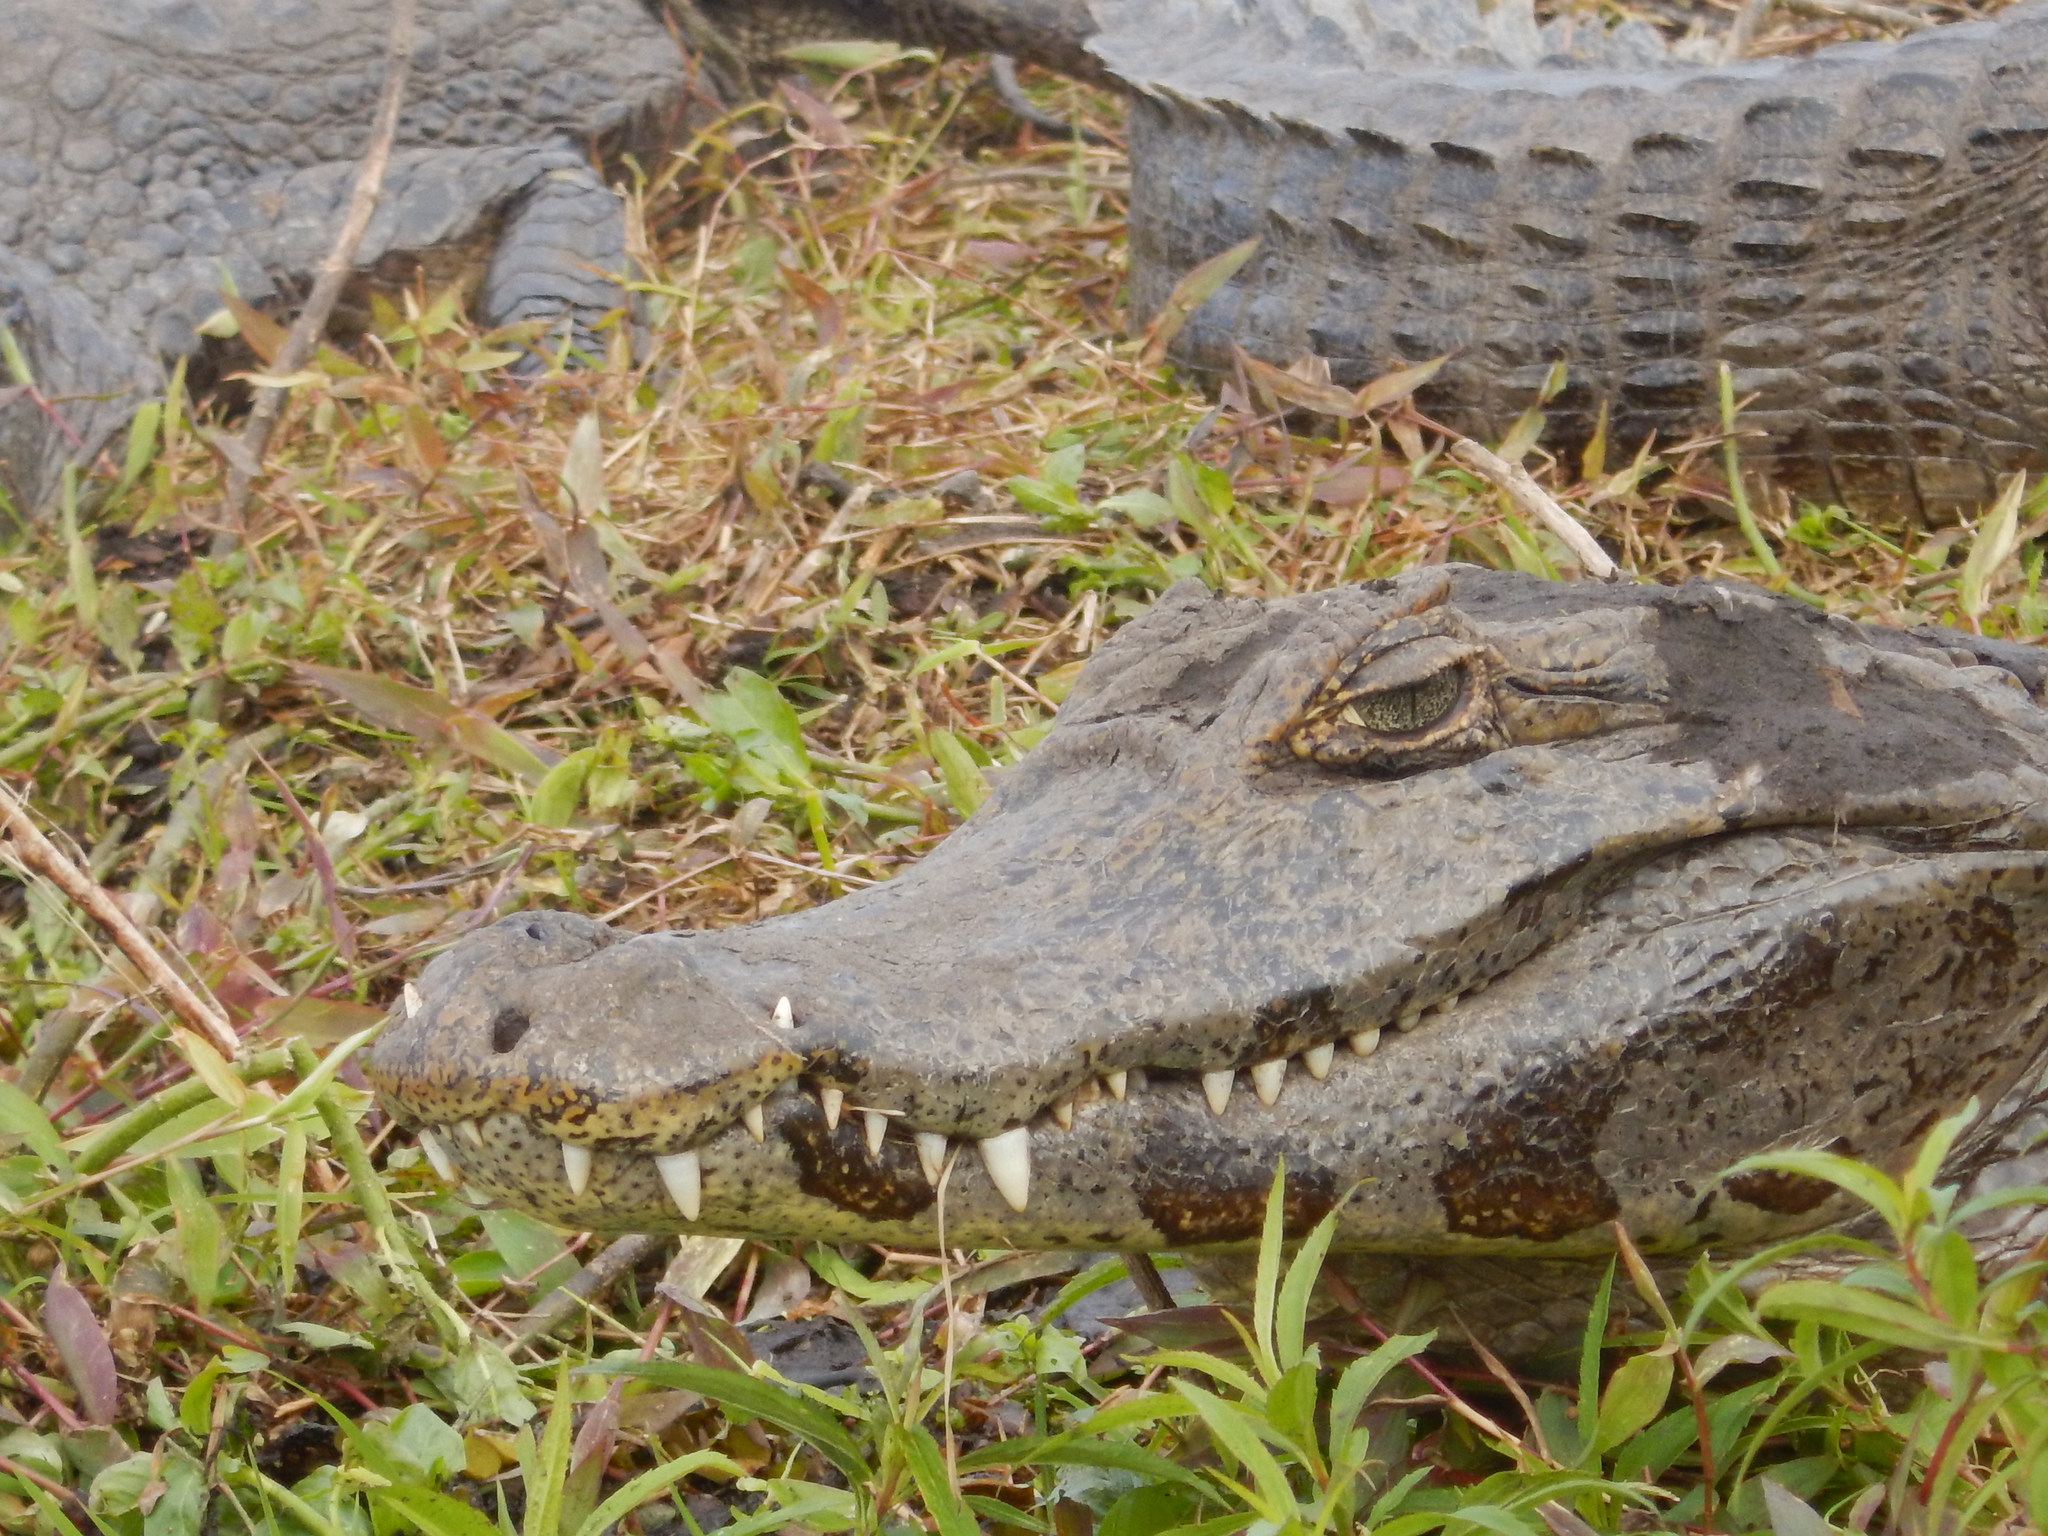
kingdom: Animalia
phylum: Chordata
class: Crocodylia
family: Alligatoridae
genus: Caiman
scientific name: Caiman yacare
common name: Yacare caiman
